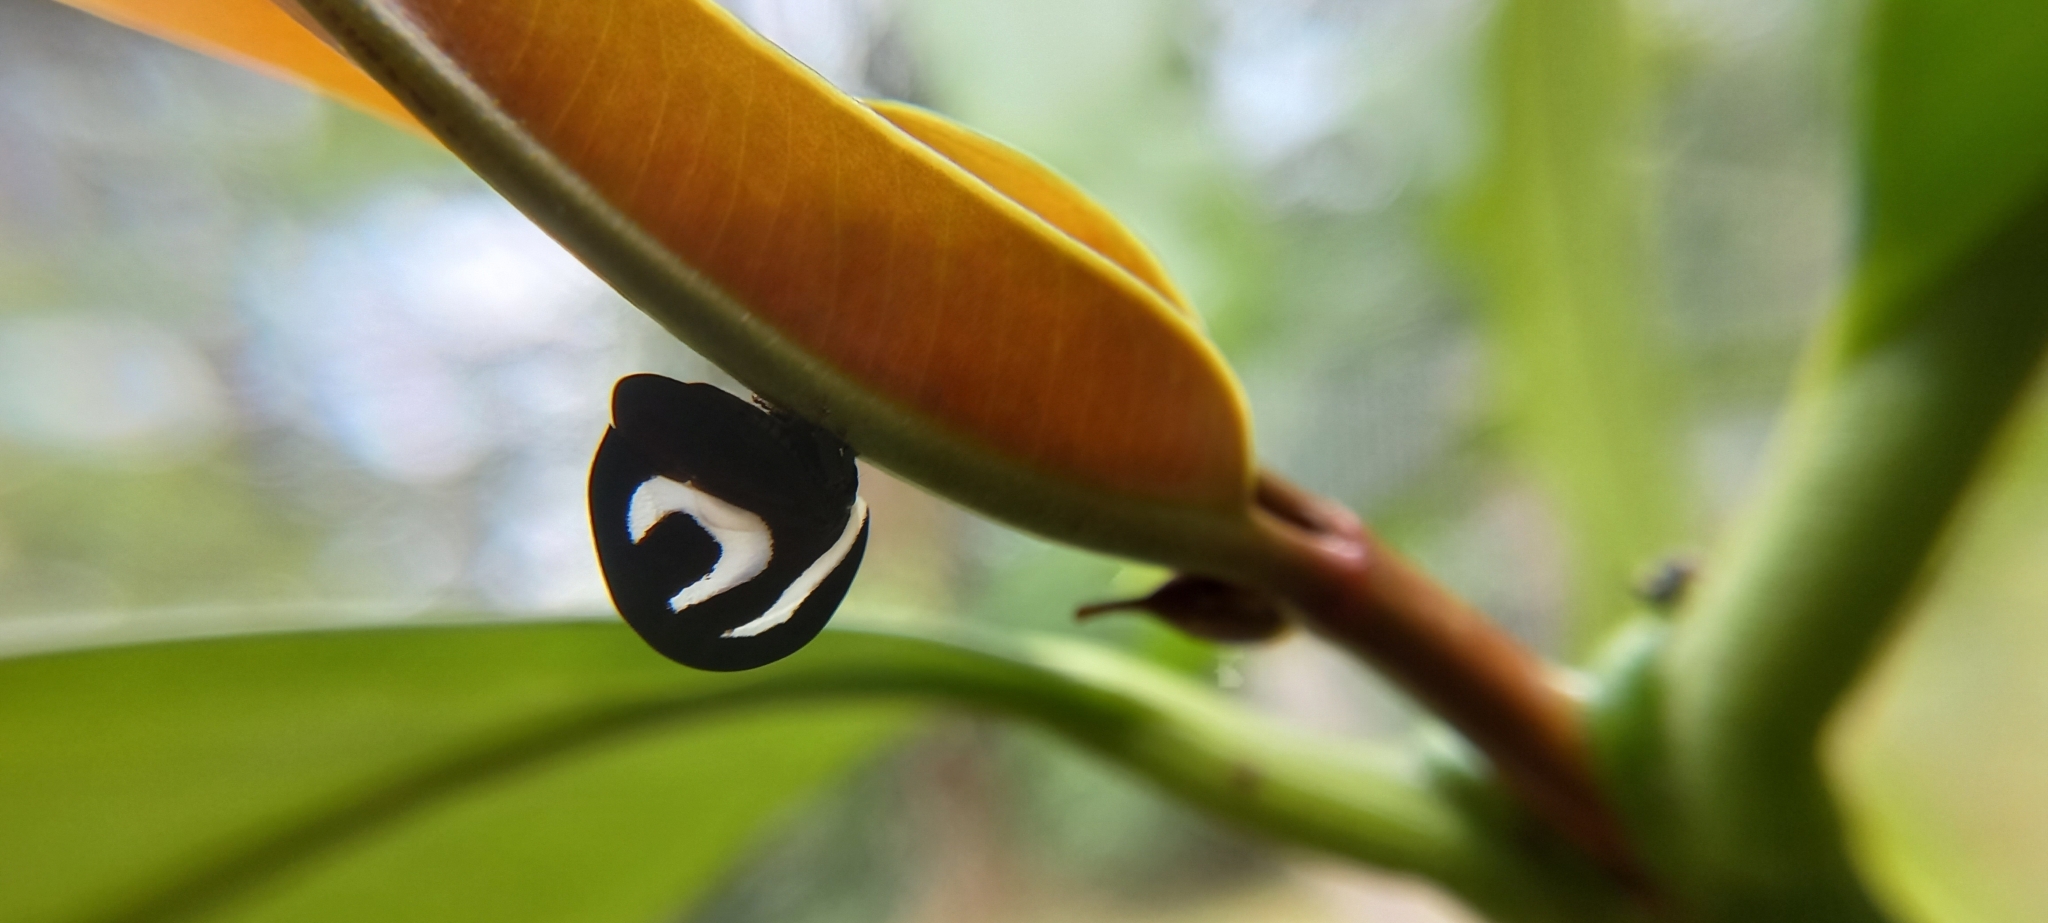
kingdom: Animalia
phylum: Arthropoda
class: Insecta
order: Hemiptera
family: Membracidae
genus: Membracis
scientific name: Membracis foliatafasciata
